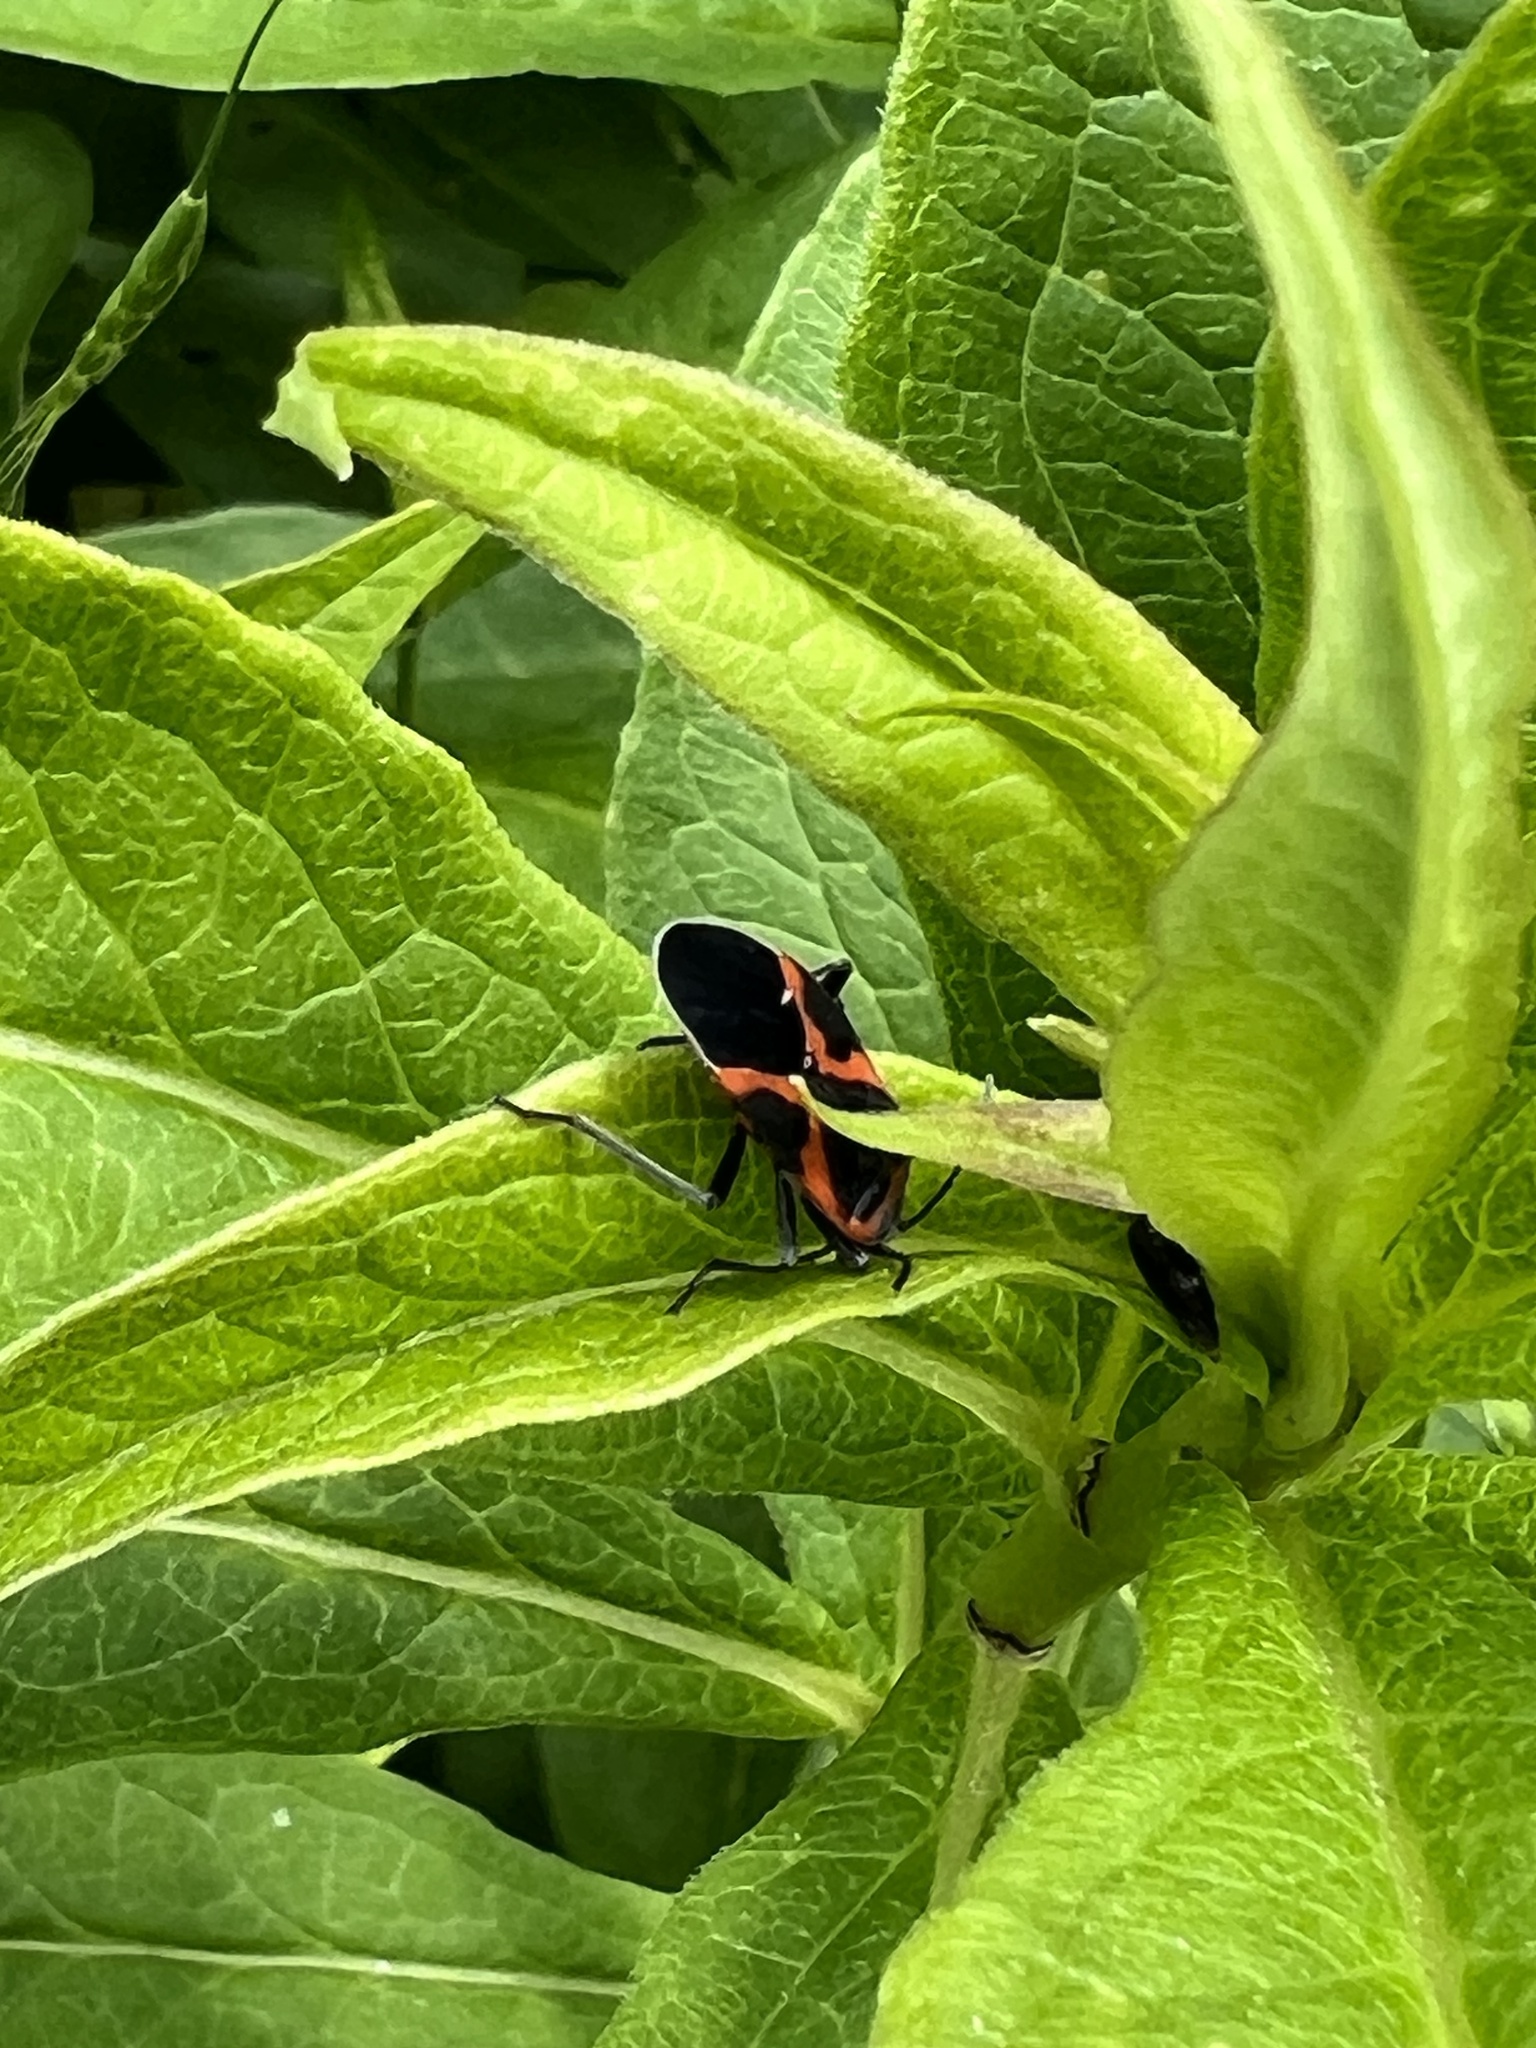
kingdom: Animalia
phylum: Arthropoda
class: Insecta
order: Hemiptera
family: Lygaeidae
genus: Lygaeus
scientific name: Lygaeus kalmii
